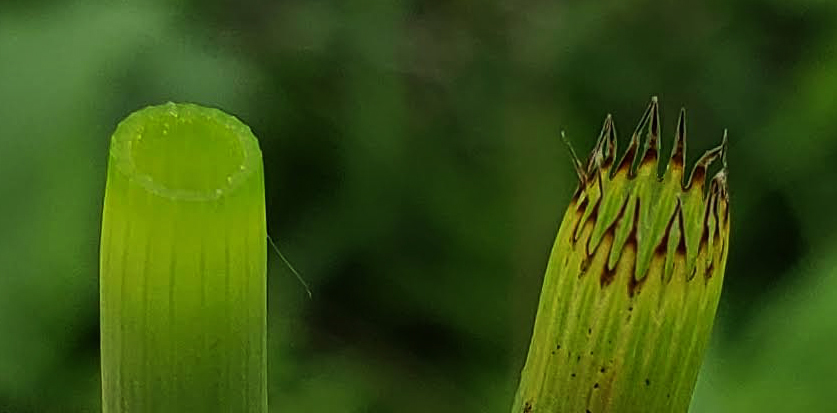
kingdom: Plantae
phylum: Tracheophyta
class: Polypodiopsida
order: Equisetales
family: Equisetaceae
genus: Equisetum
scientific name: Equisetum fluviatile
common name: Water horsetail
